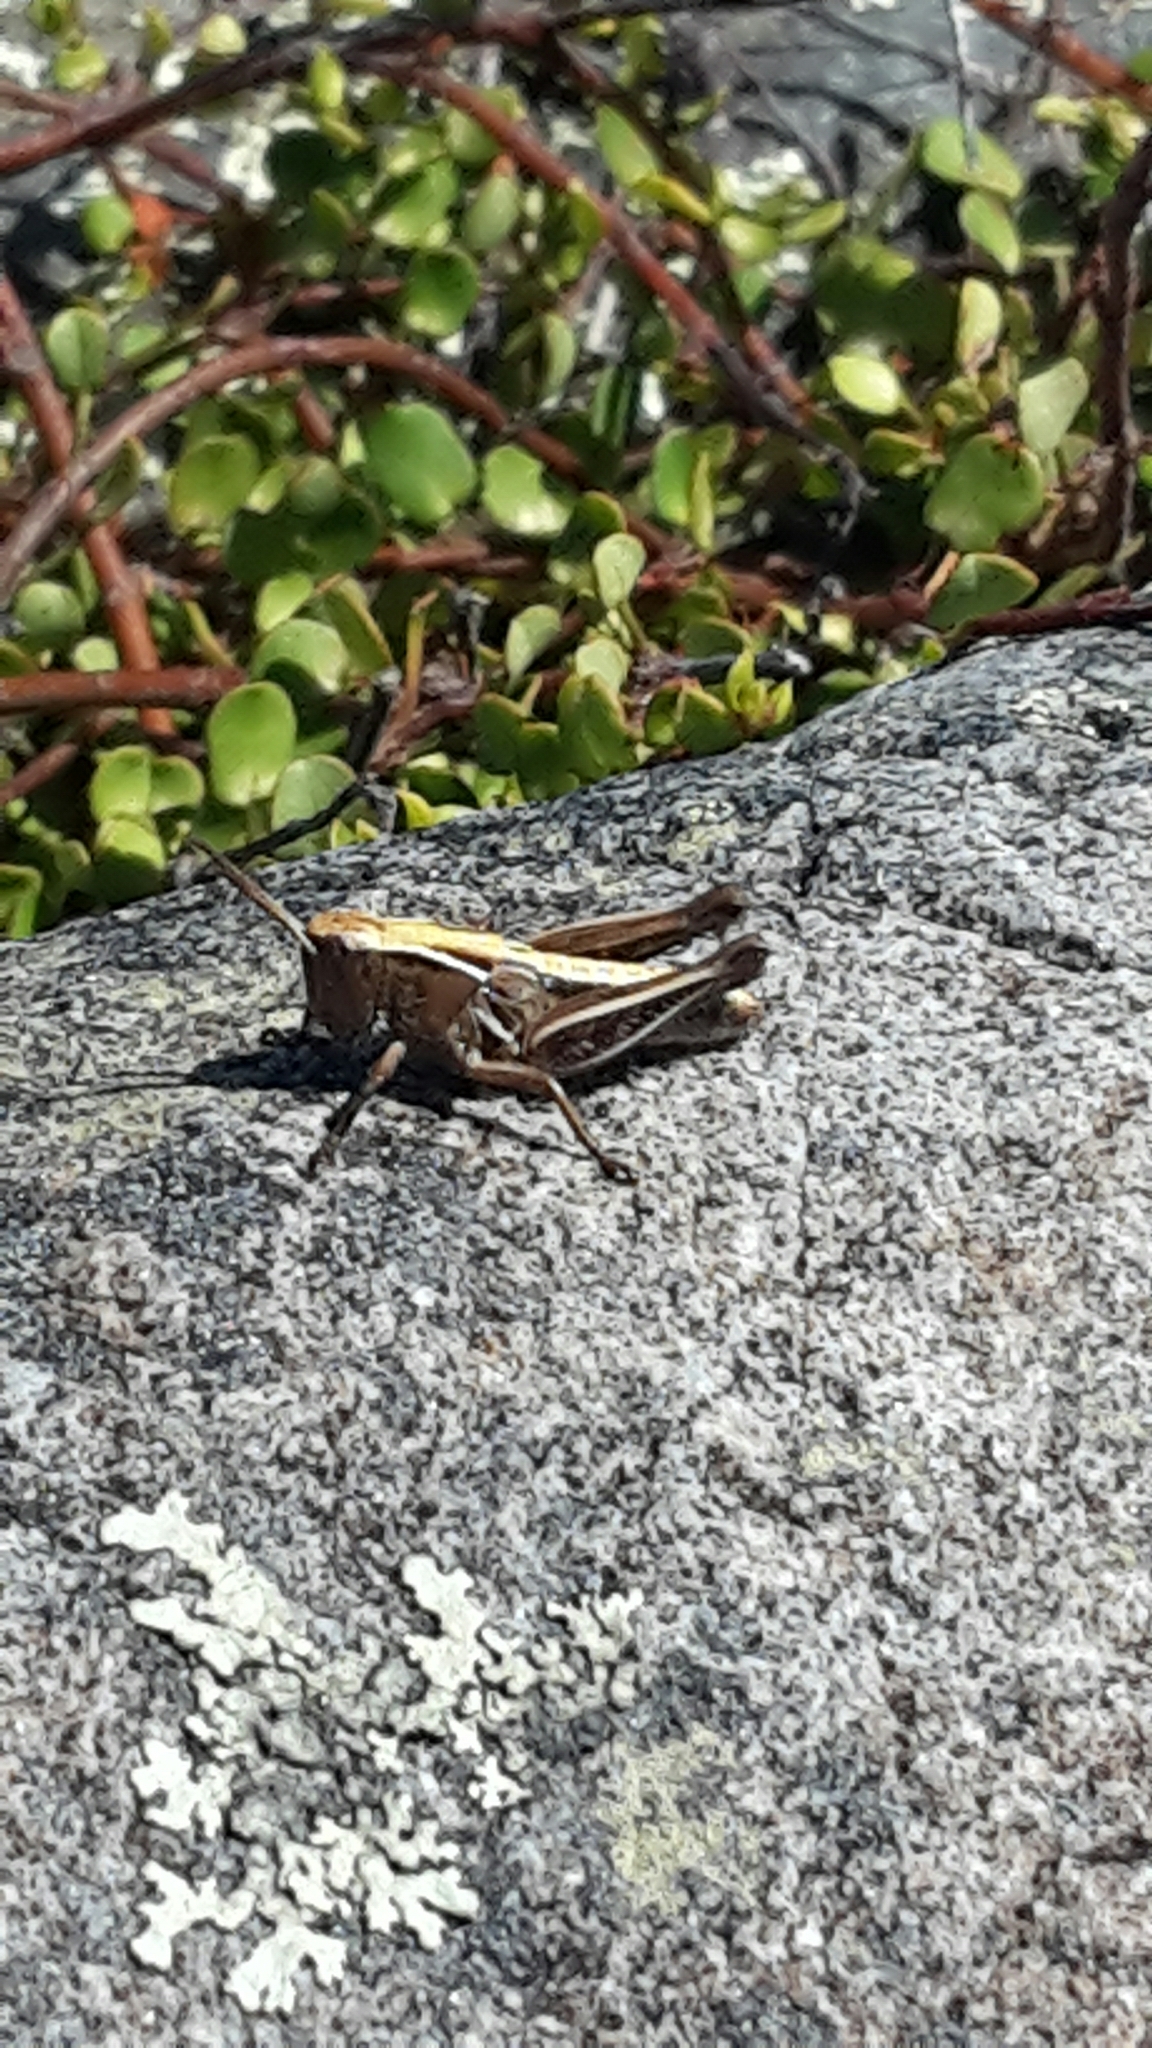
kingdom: Animalia
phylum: Arthropoda
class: Insecta
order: Orthoptera
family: Acrididae
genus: Phaulacridium
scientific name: Phaulacridium marginale
